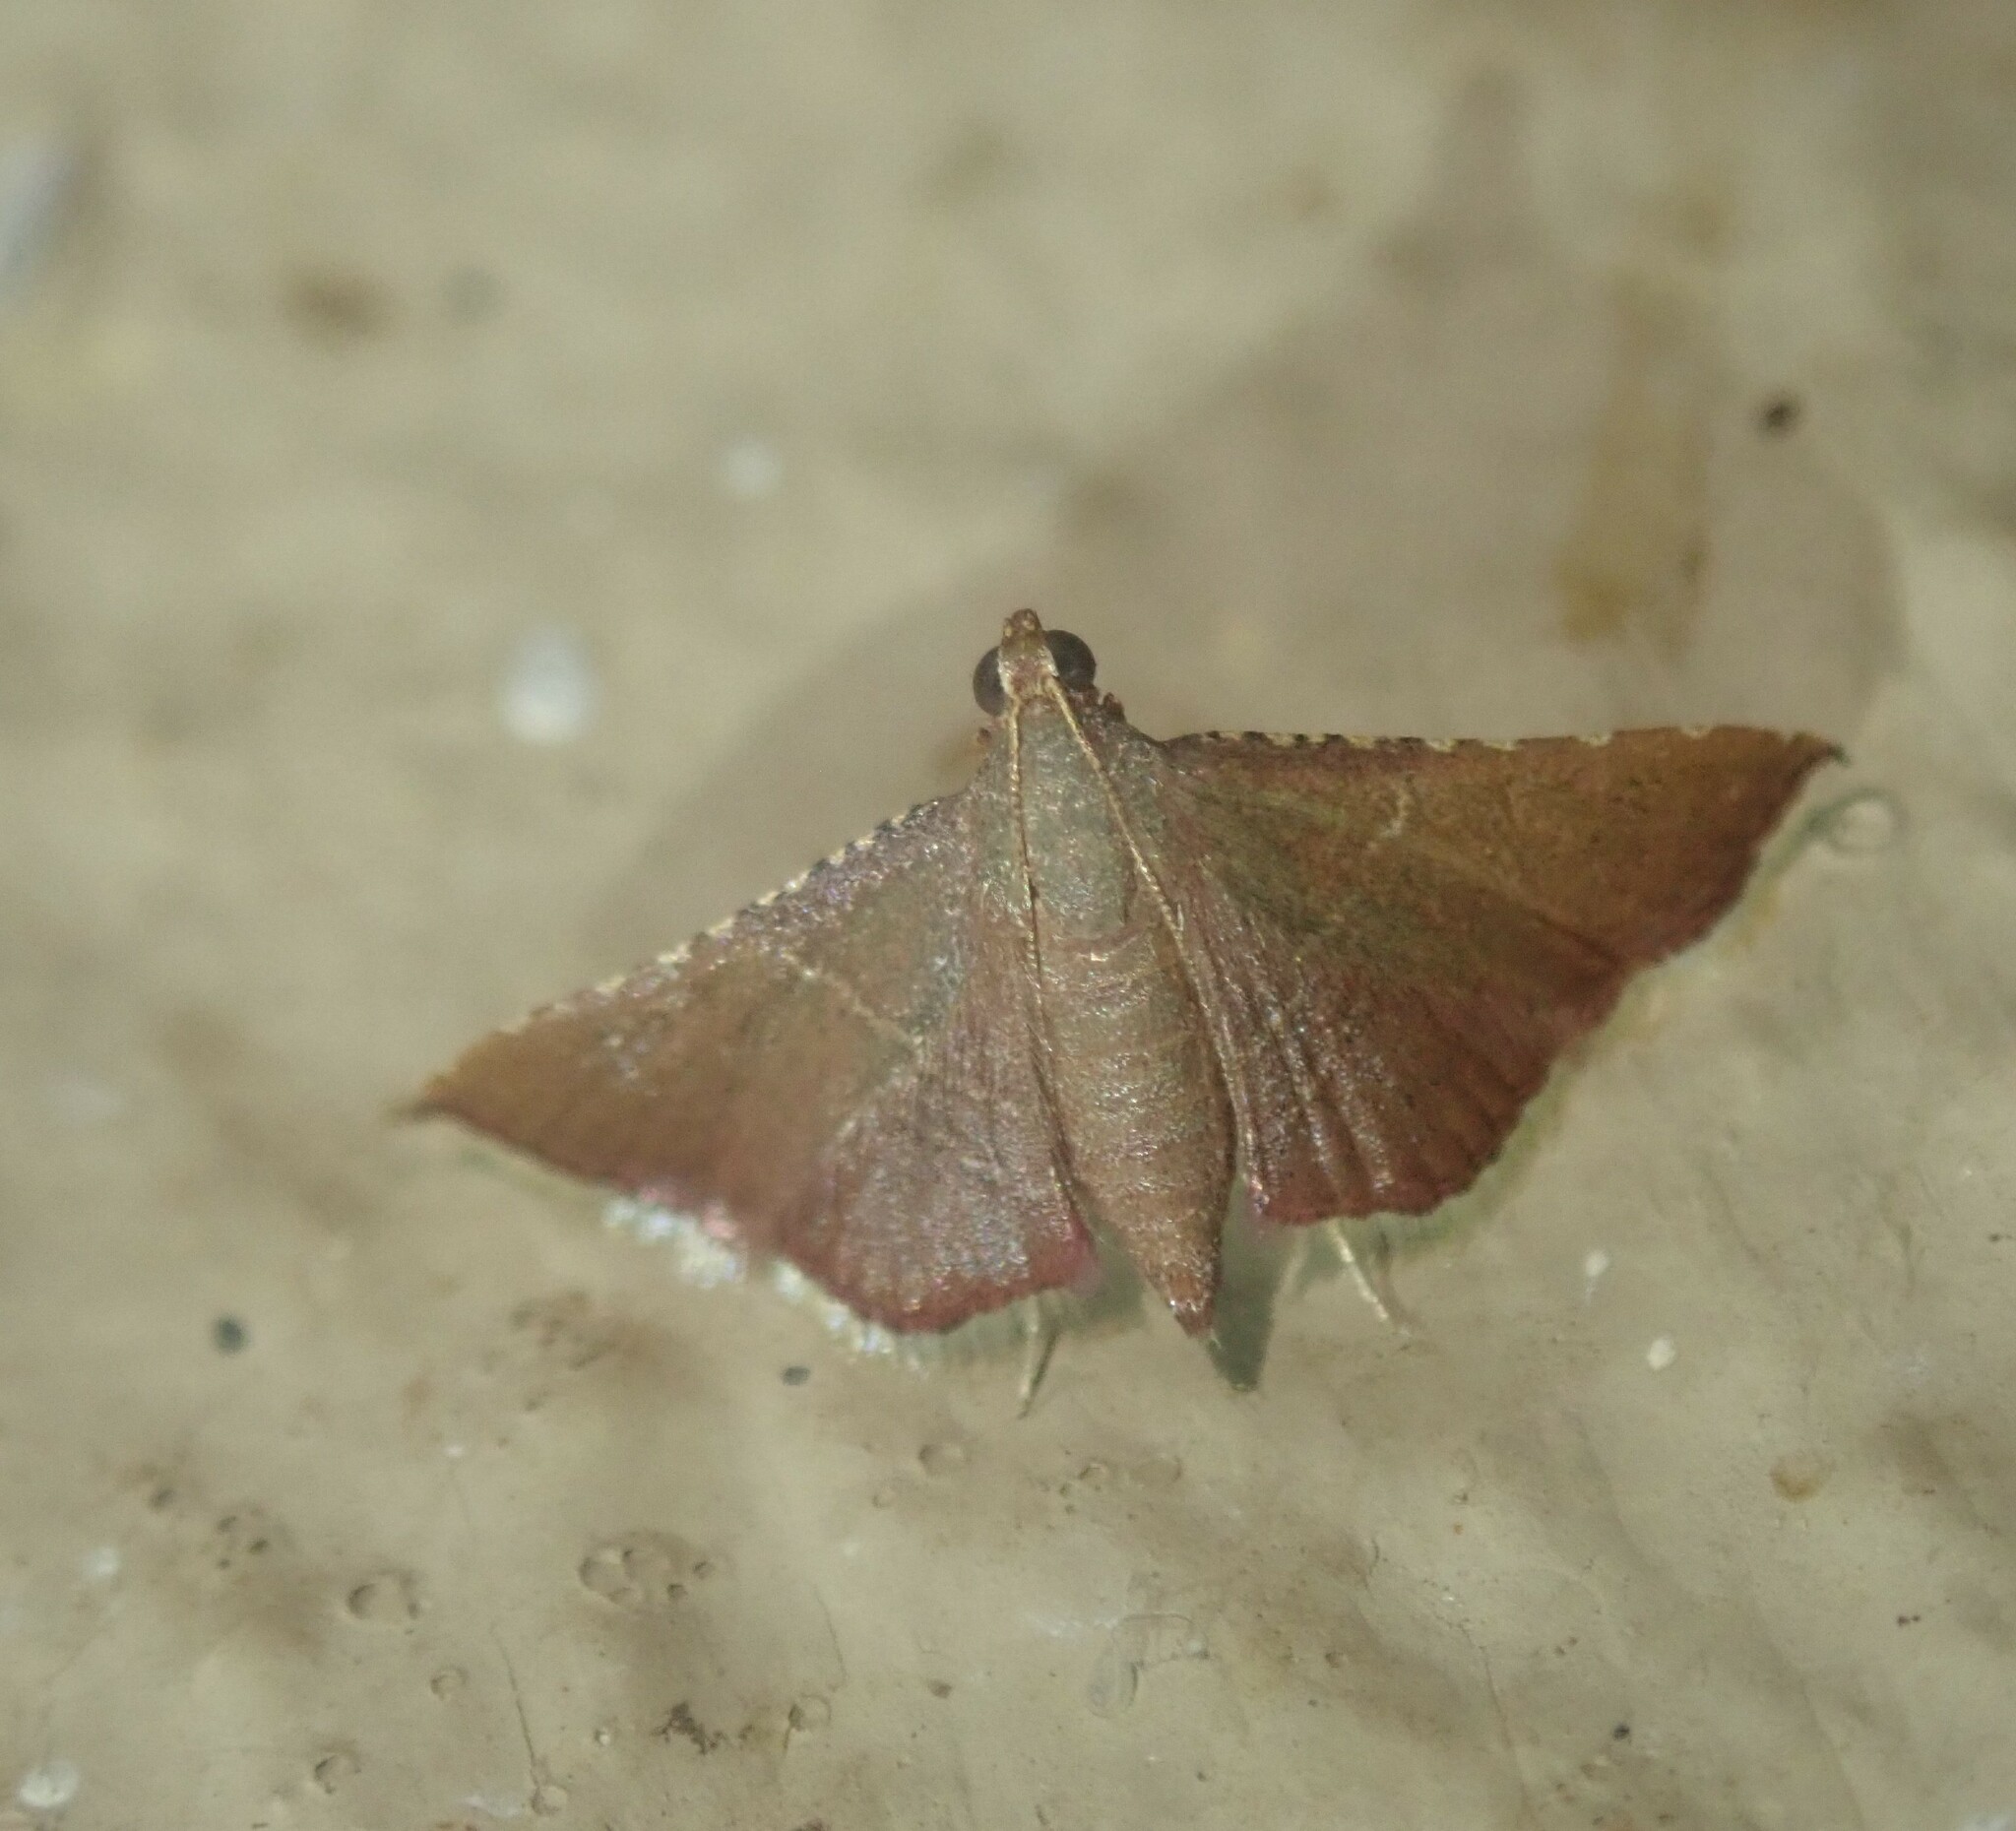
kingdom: Animalia
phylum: Arthropoda
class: Insecta
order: Lepidoptera
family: Pyralidae
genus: Endotricha
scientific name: Endotricha erythralis
